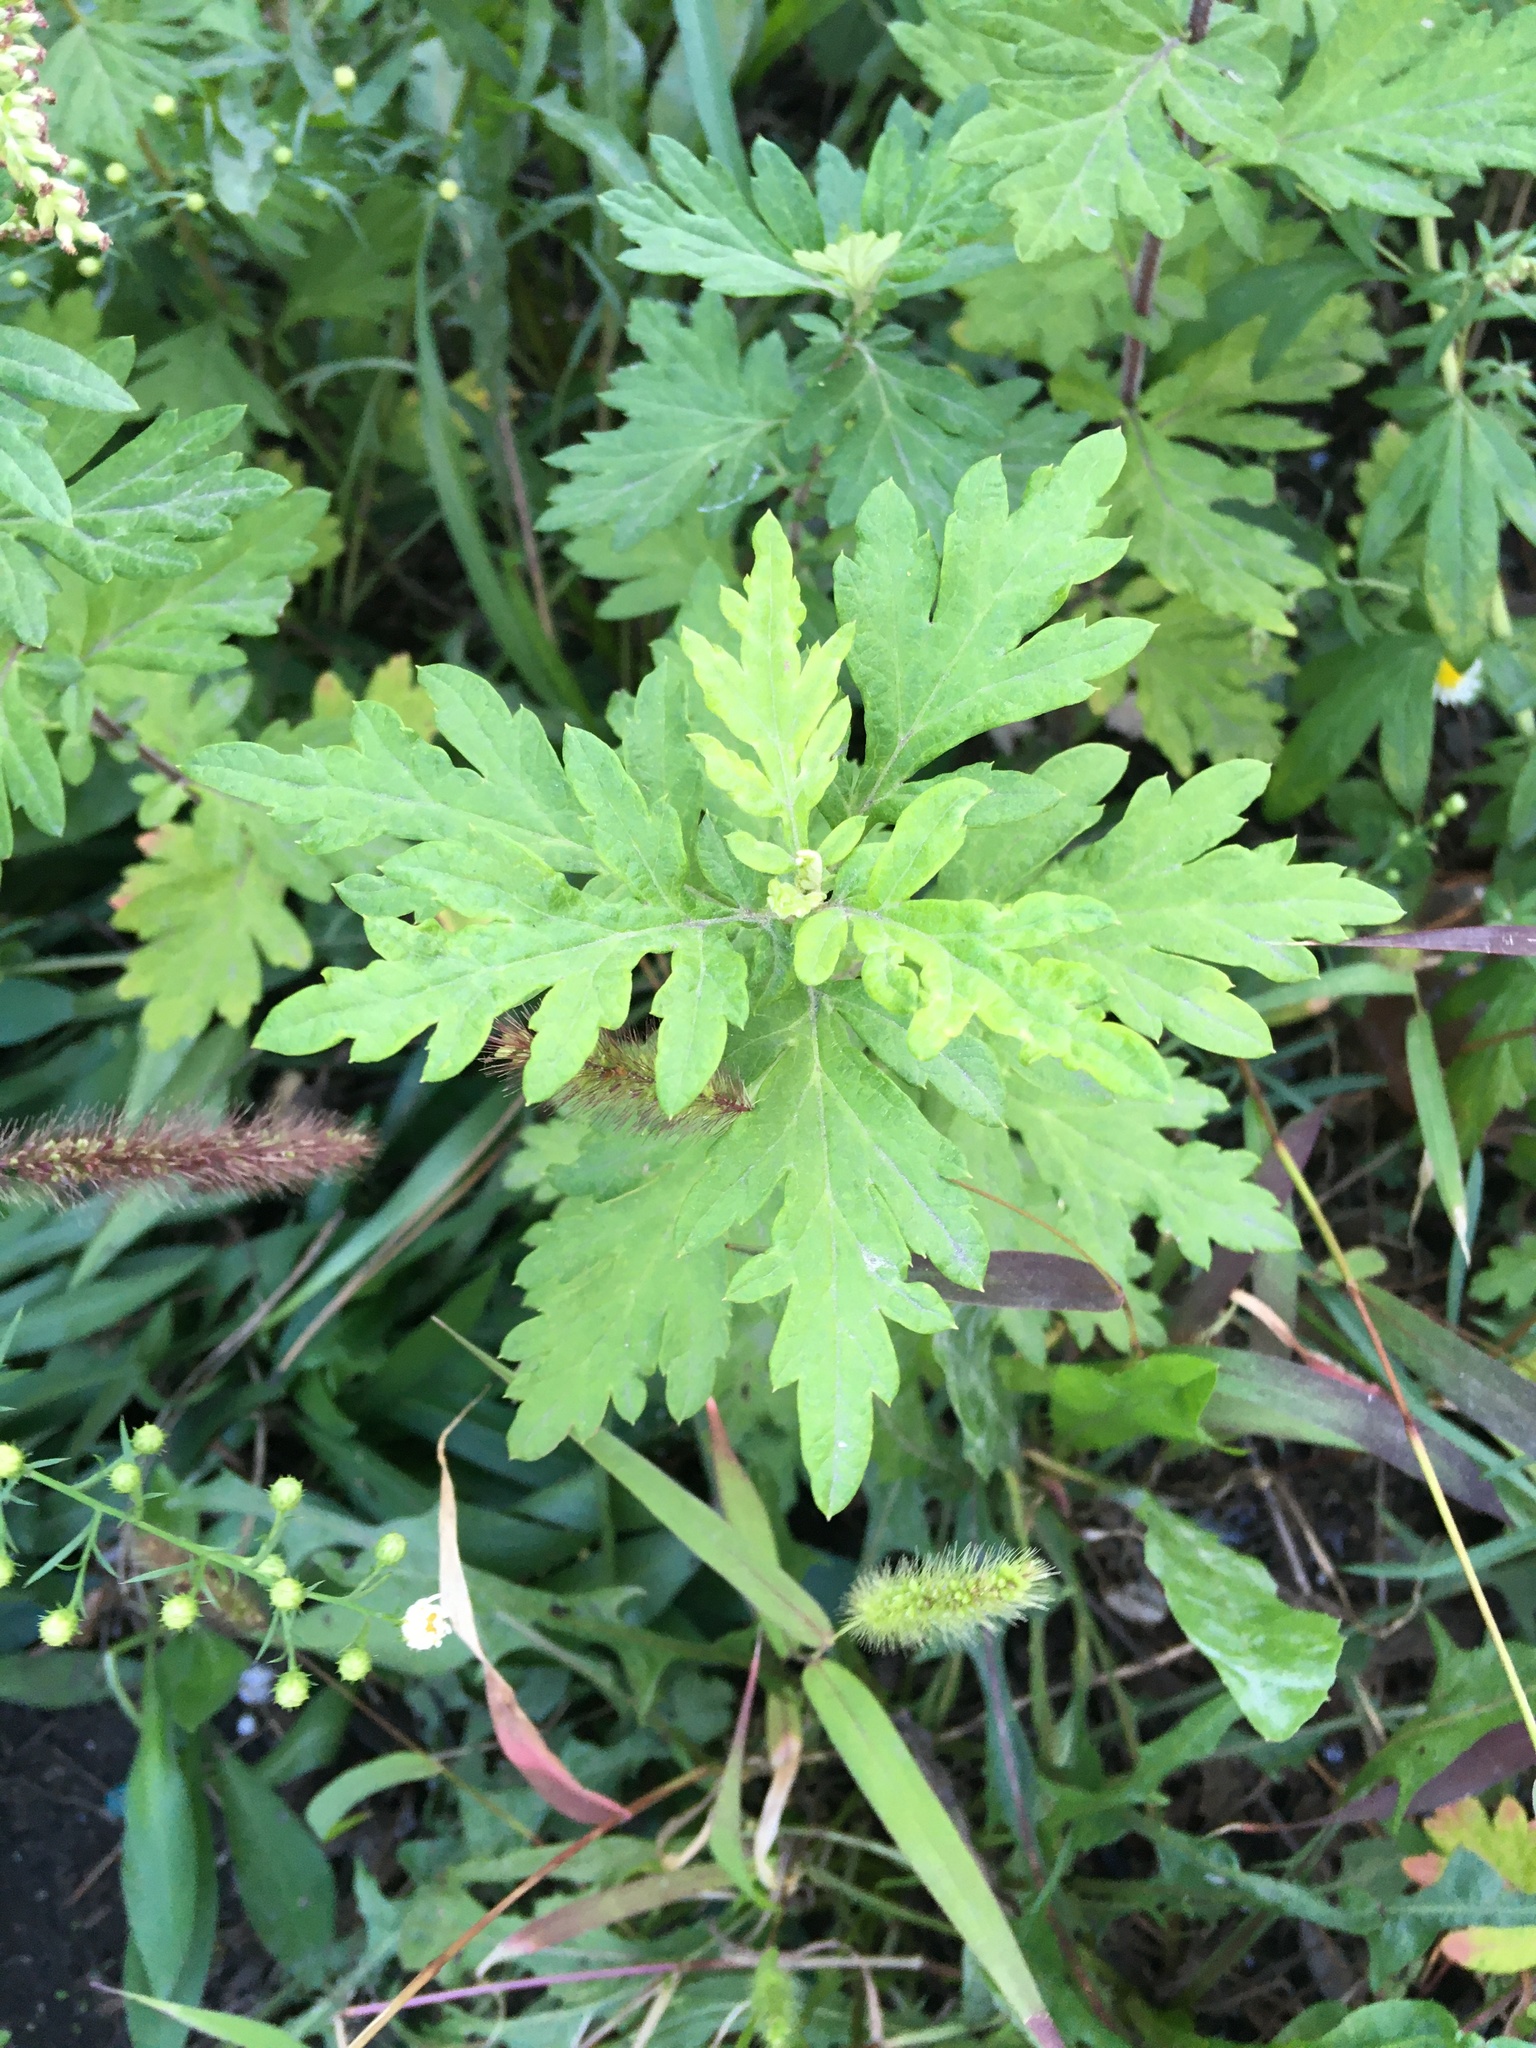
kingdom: Plantae
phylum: Tracheophyta
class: Magnoliopsida
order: Asterales
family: Asteraceae
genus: Artemisia
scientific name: Artemisia vulgaris
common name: Mugwort
